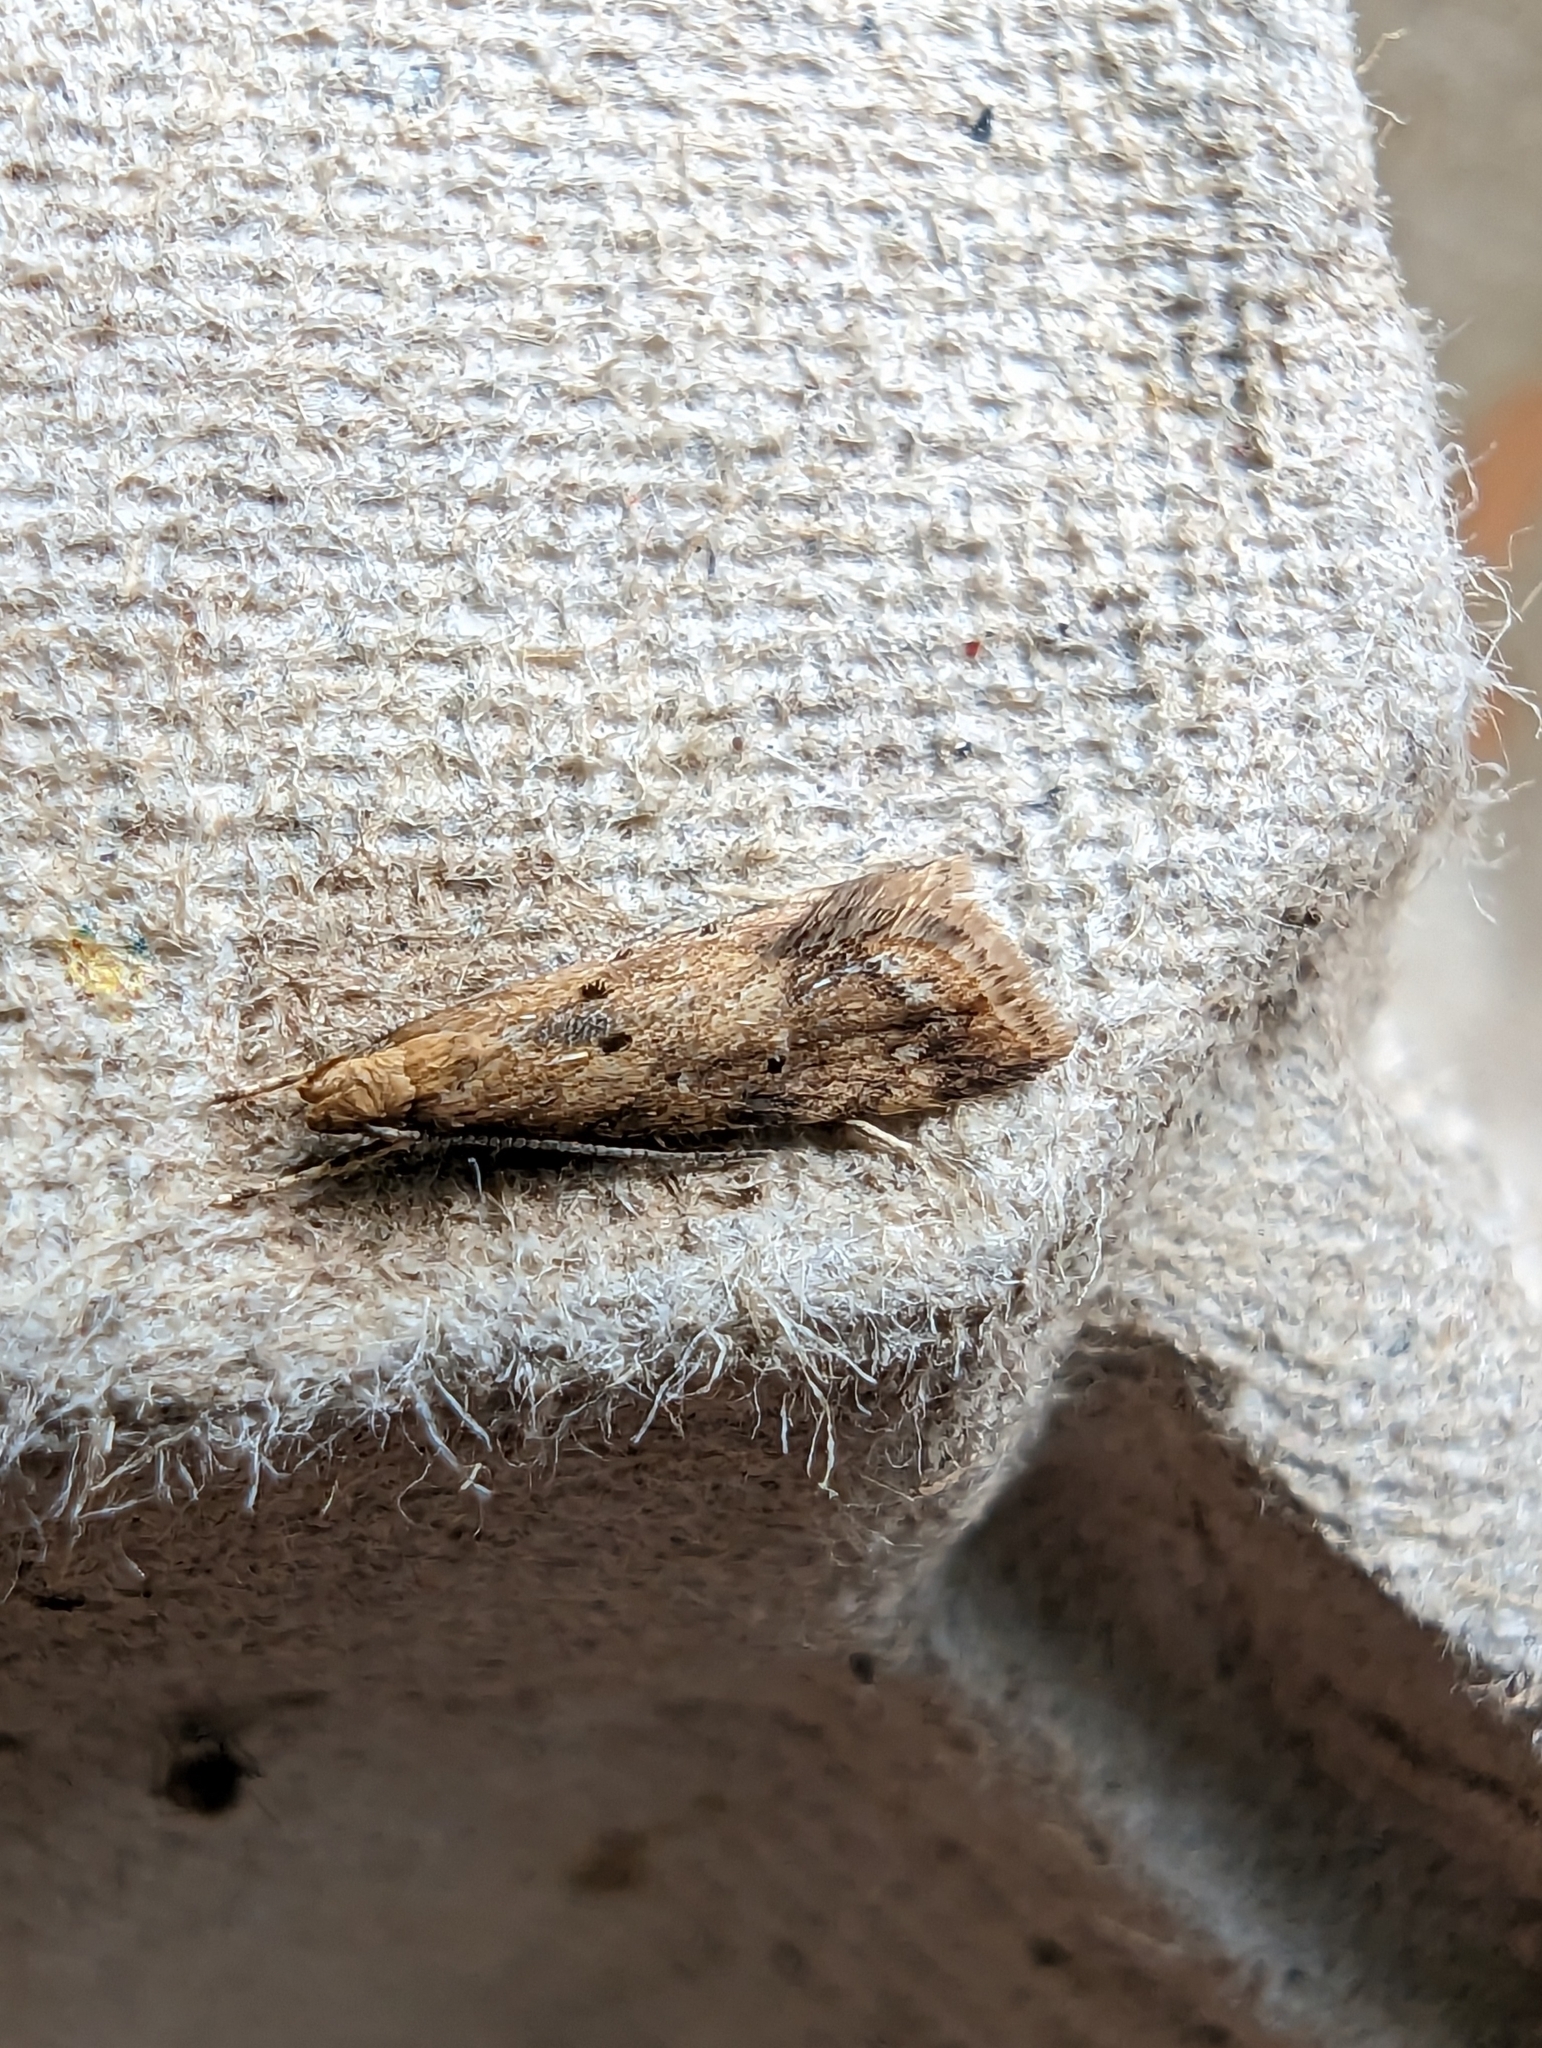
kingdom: Animalia
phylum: Arthropoda
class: Insecta
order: Lepidoptera
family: Gelechiidae
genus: Brachmia
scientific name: Brachmia blandella
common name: Gorse crest
